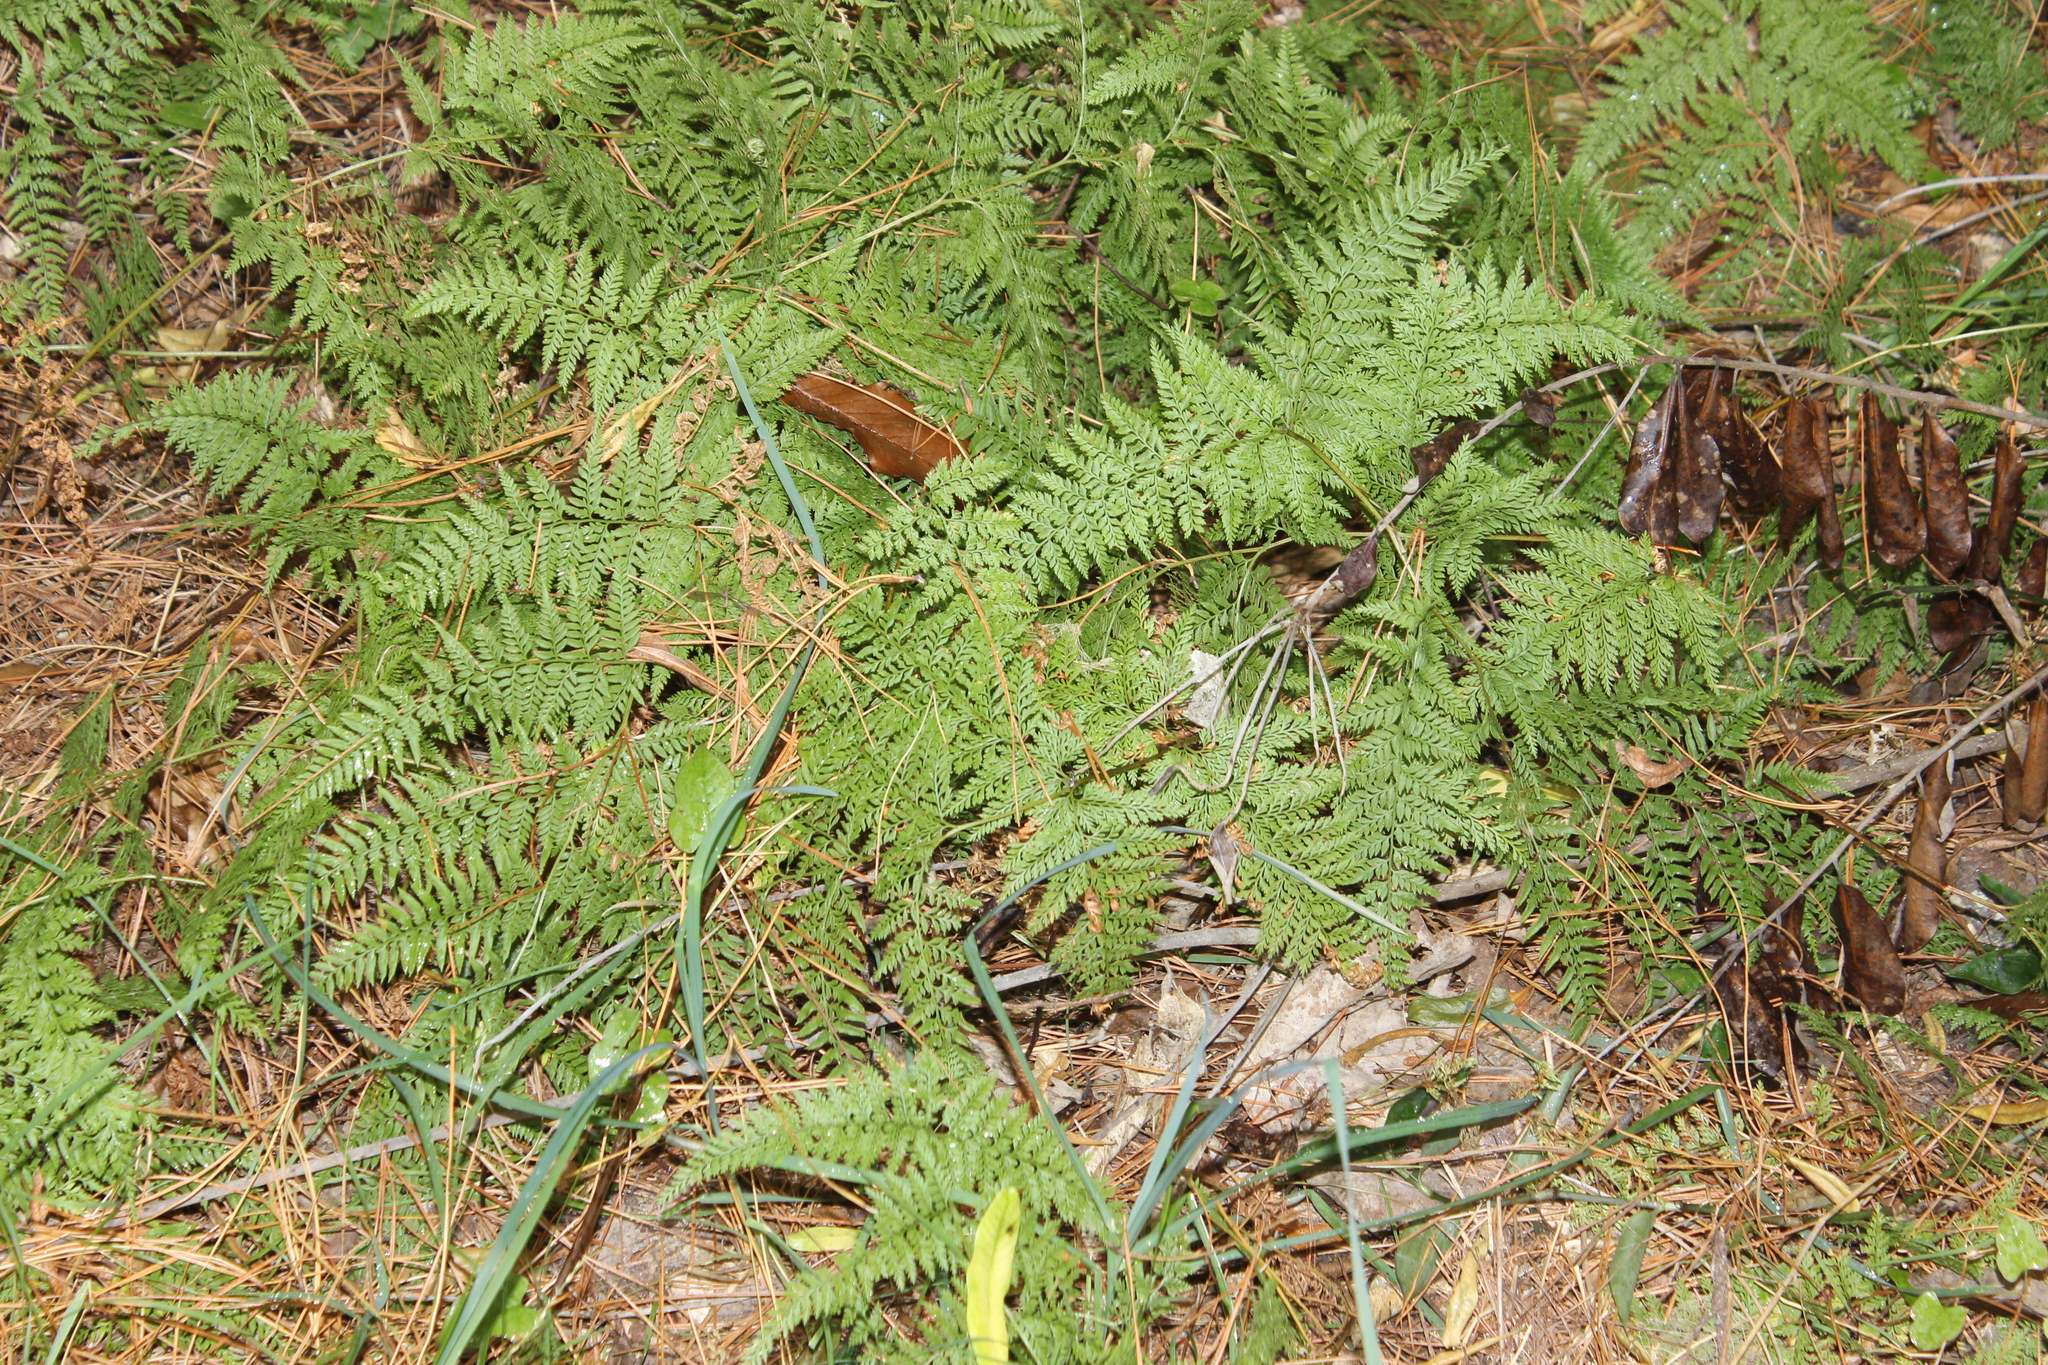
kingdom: Plantae
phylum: Tracheophyta
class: Polypodiopsida
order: Polypodiales
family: Dennstaedtiaceae
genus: Paesia
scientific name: Paesia scaberula
